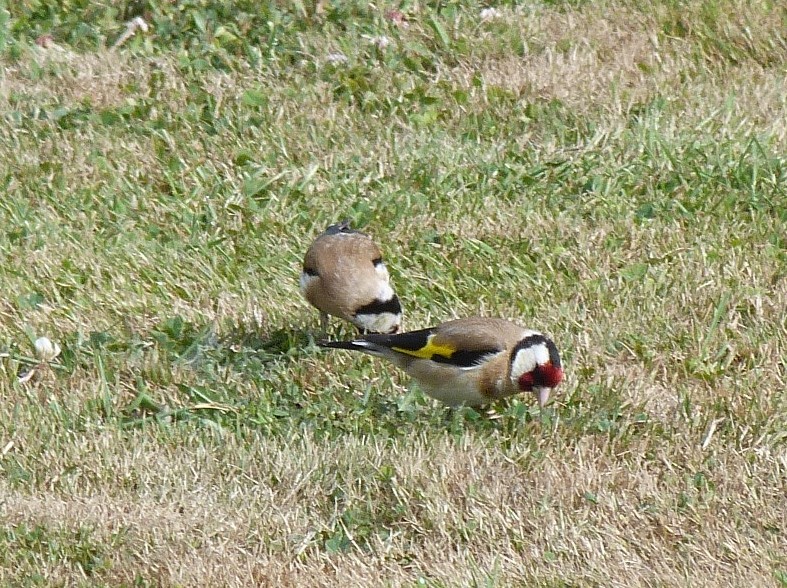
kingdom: Animalia
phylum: Chordata
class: Aves
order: Passeriformes
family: Fringillidae
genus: Carduelis
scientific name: Carduelis carduelis
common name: European goldfinch
